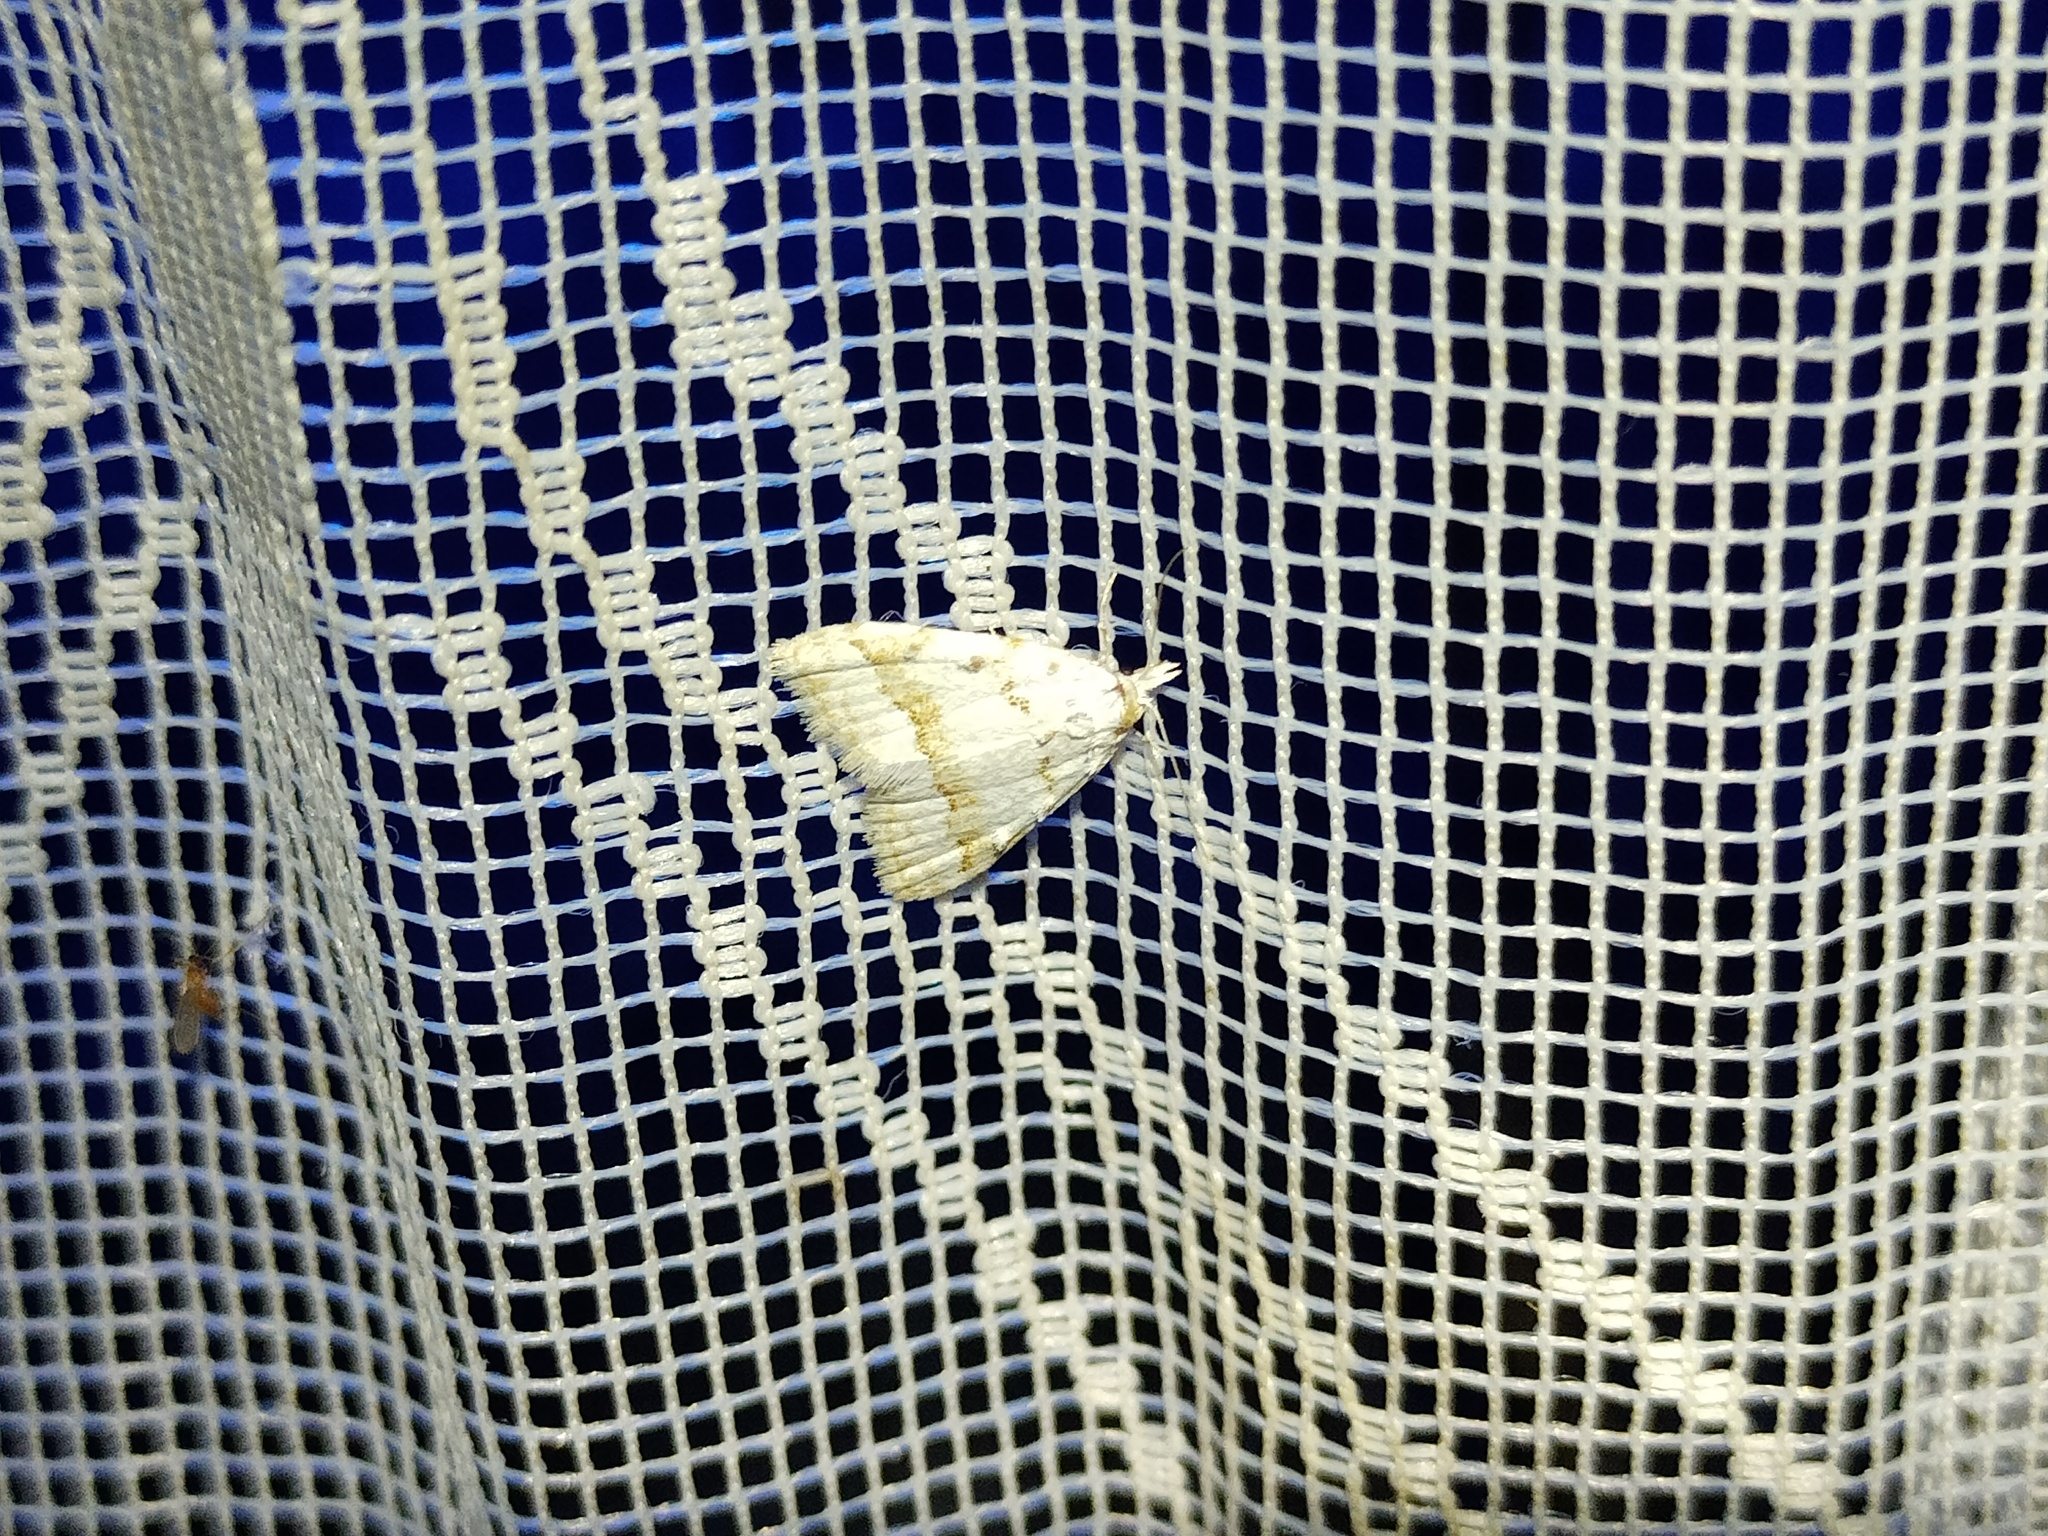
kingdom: Animalia
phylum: Arthropoda
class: Insecta
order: Lepidoptera
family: Nolidae
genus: Nola
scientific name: Nola aerugula
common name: Scarce black arches
